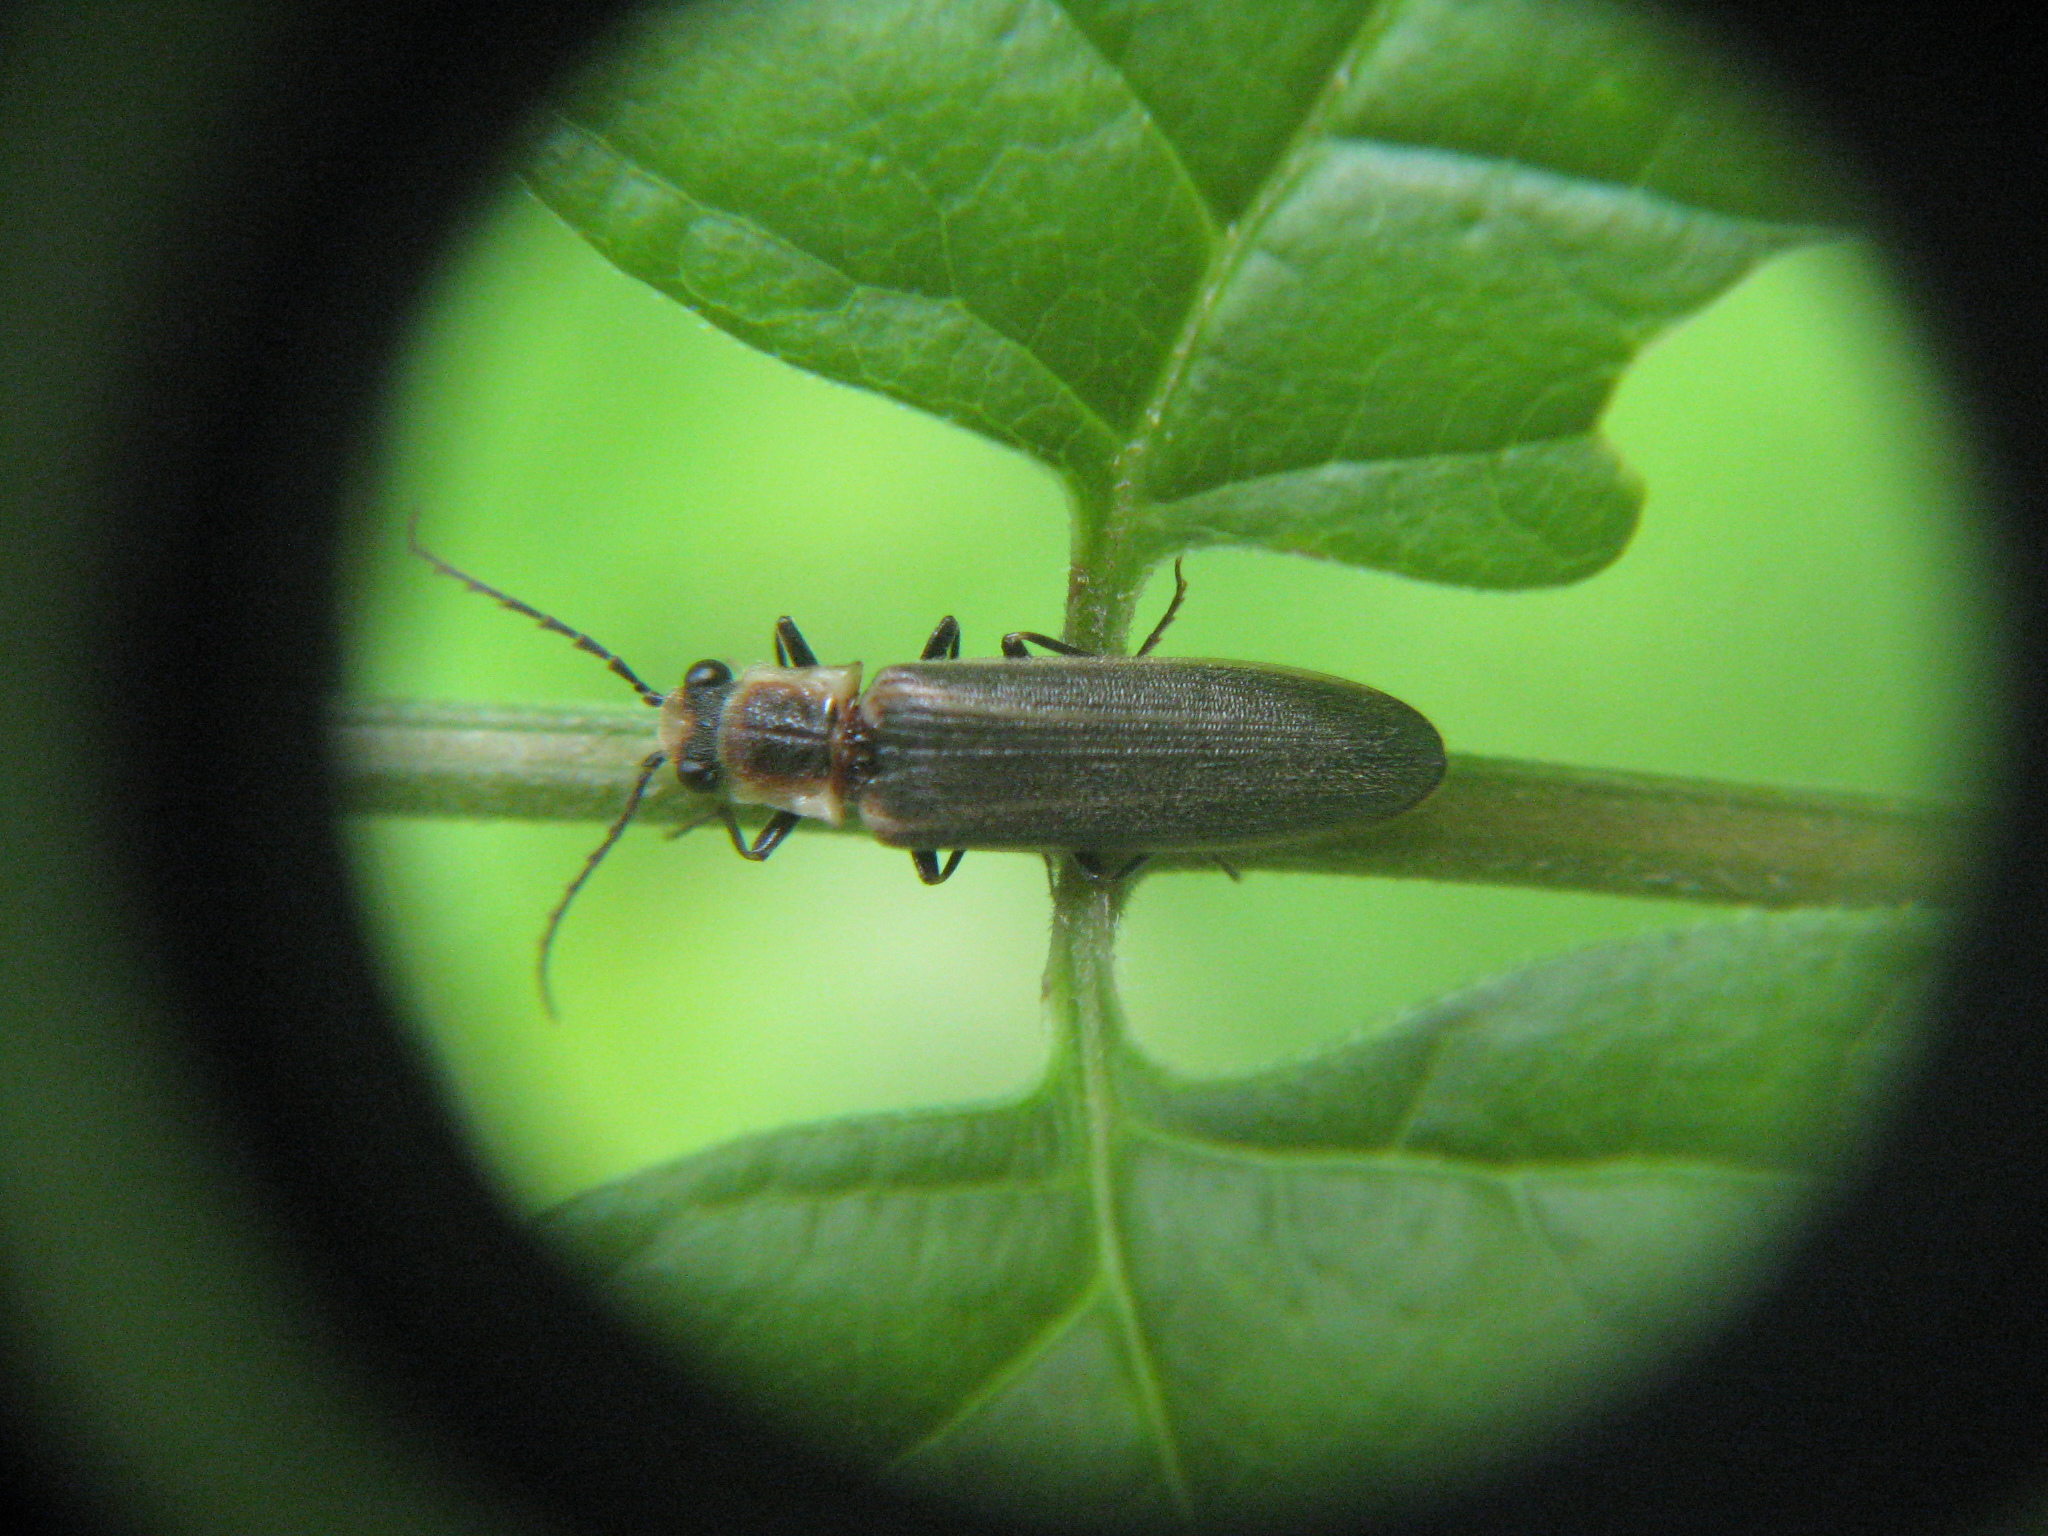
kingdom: Animalia
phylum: Arthropoda
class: Insecta
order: Coleoptera
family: Elateridae
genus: Denticollis
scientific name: Denticollis denticornis
